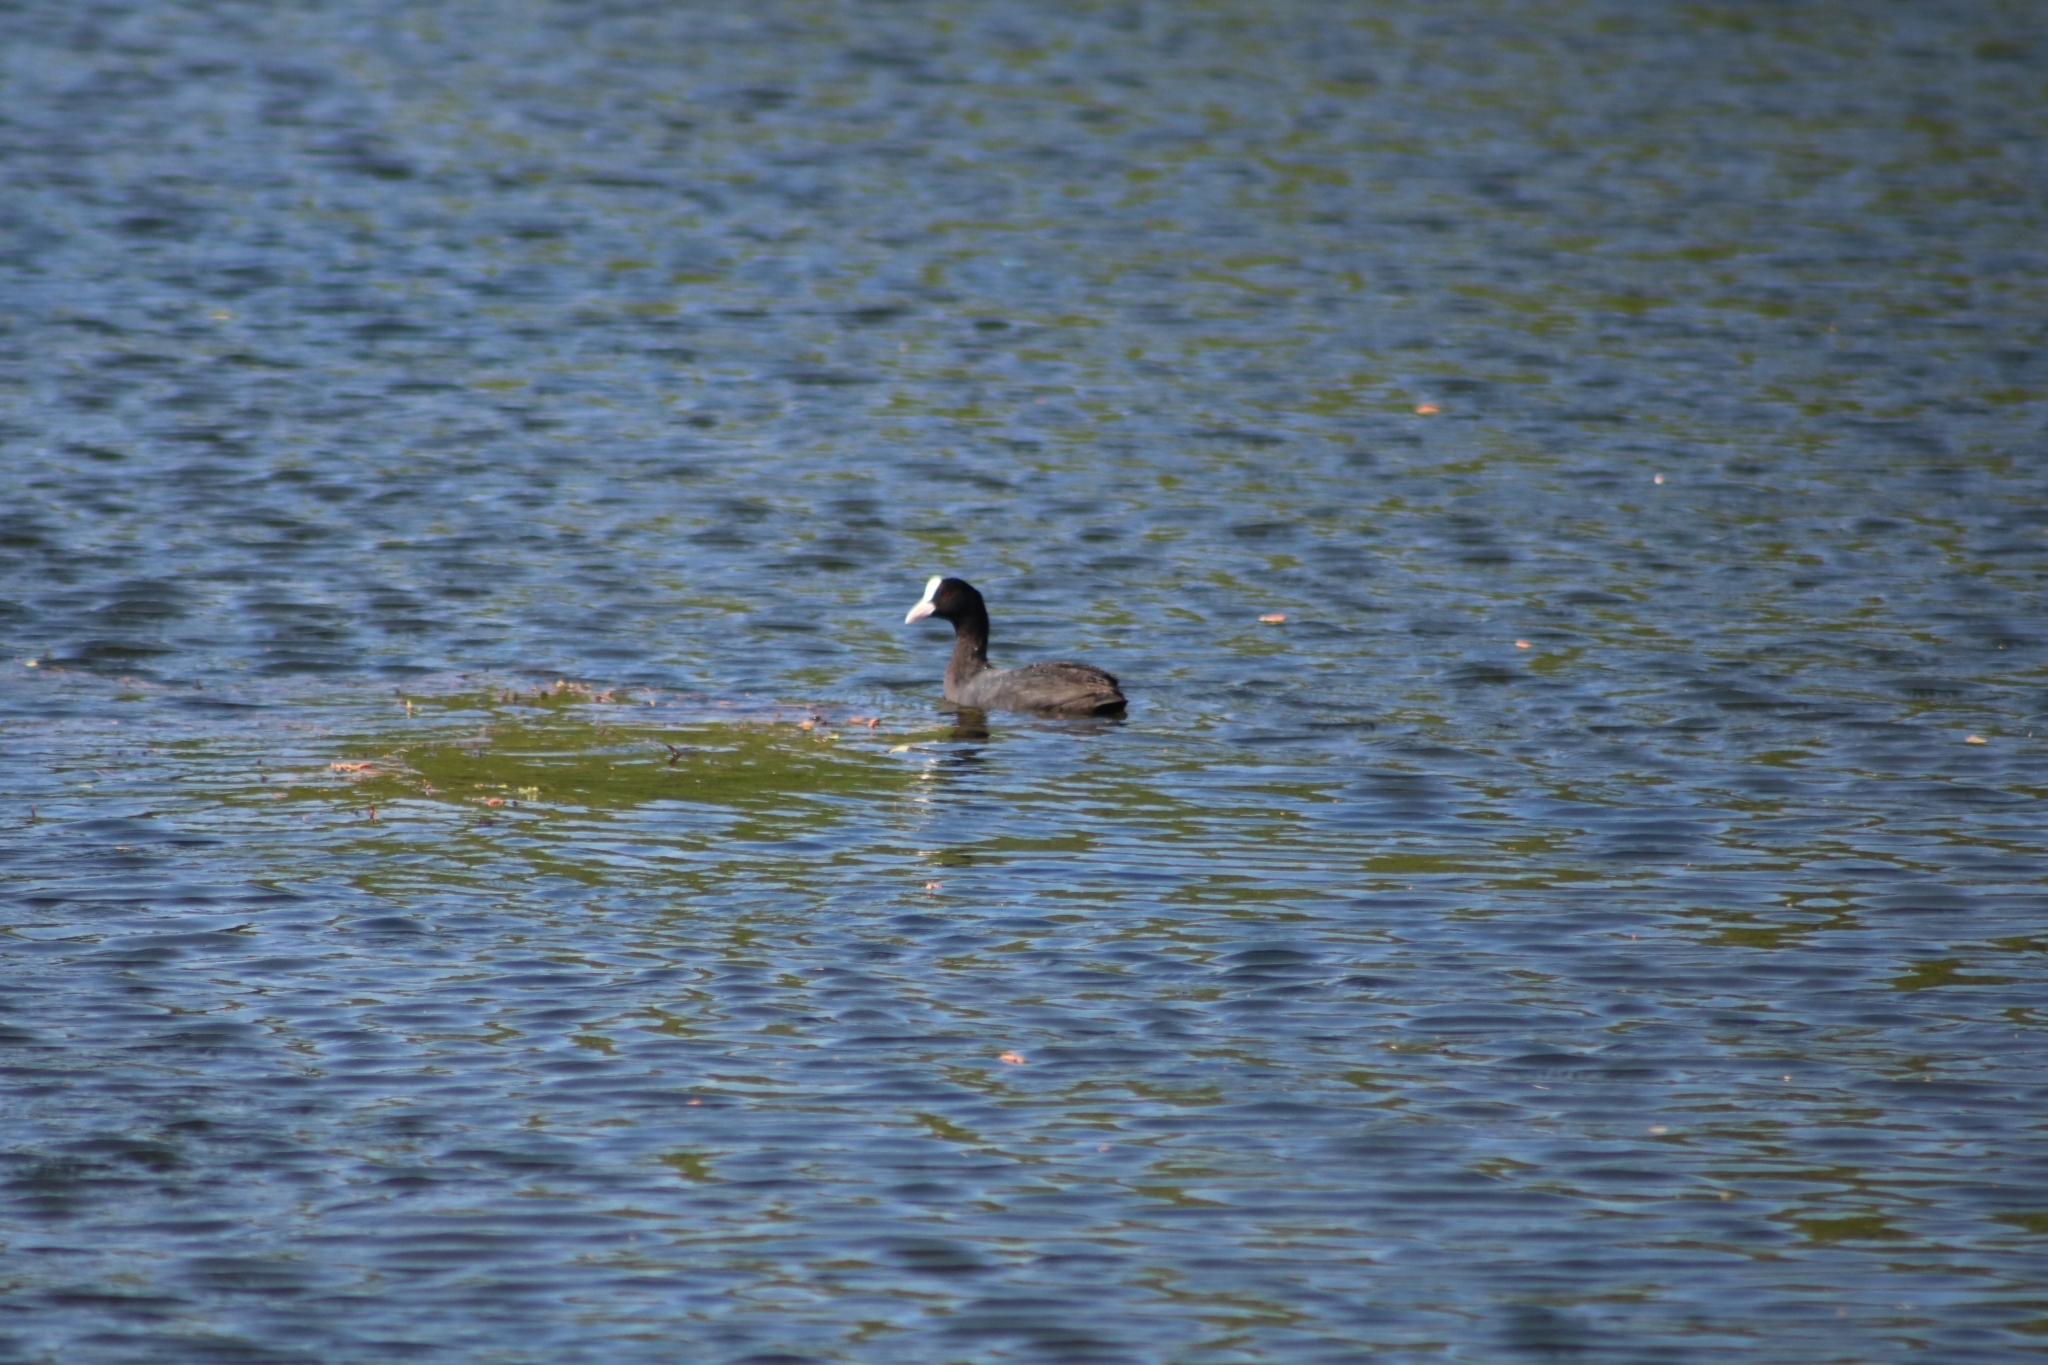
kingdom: Animalia
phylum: Chordata
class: Aves
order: Gruiformes
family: Rallidae
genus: Fulica
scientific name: Fulica atra
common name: Eurasian coot
